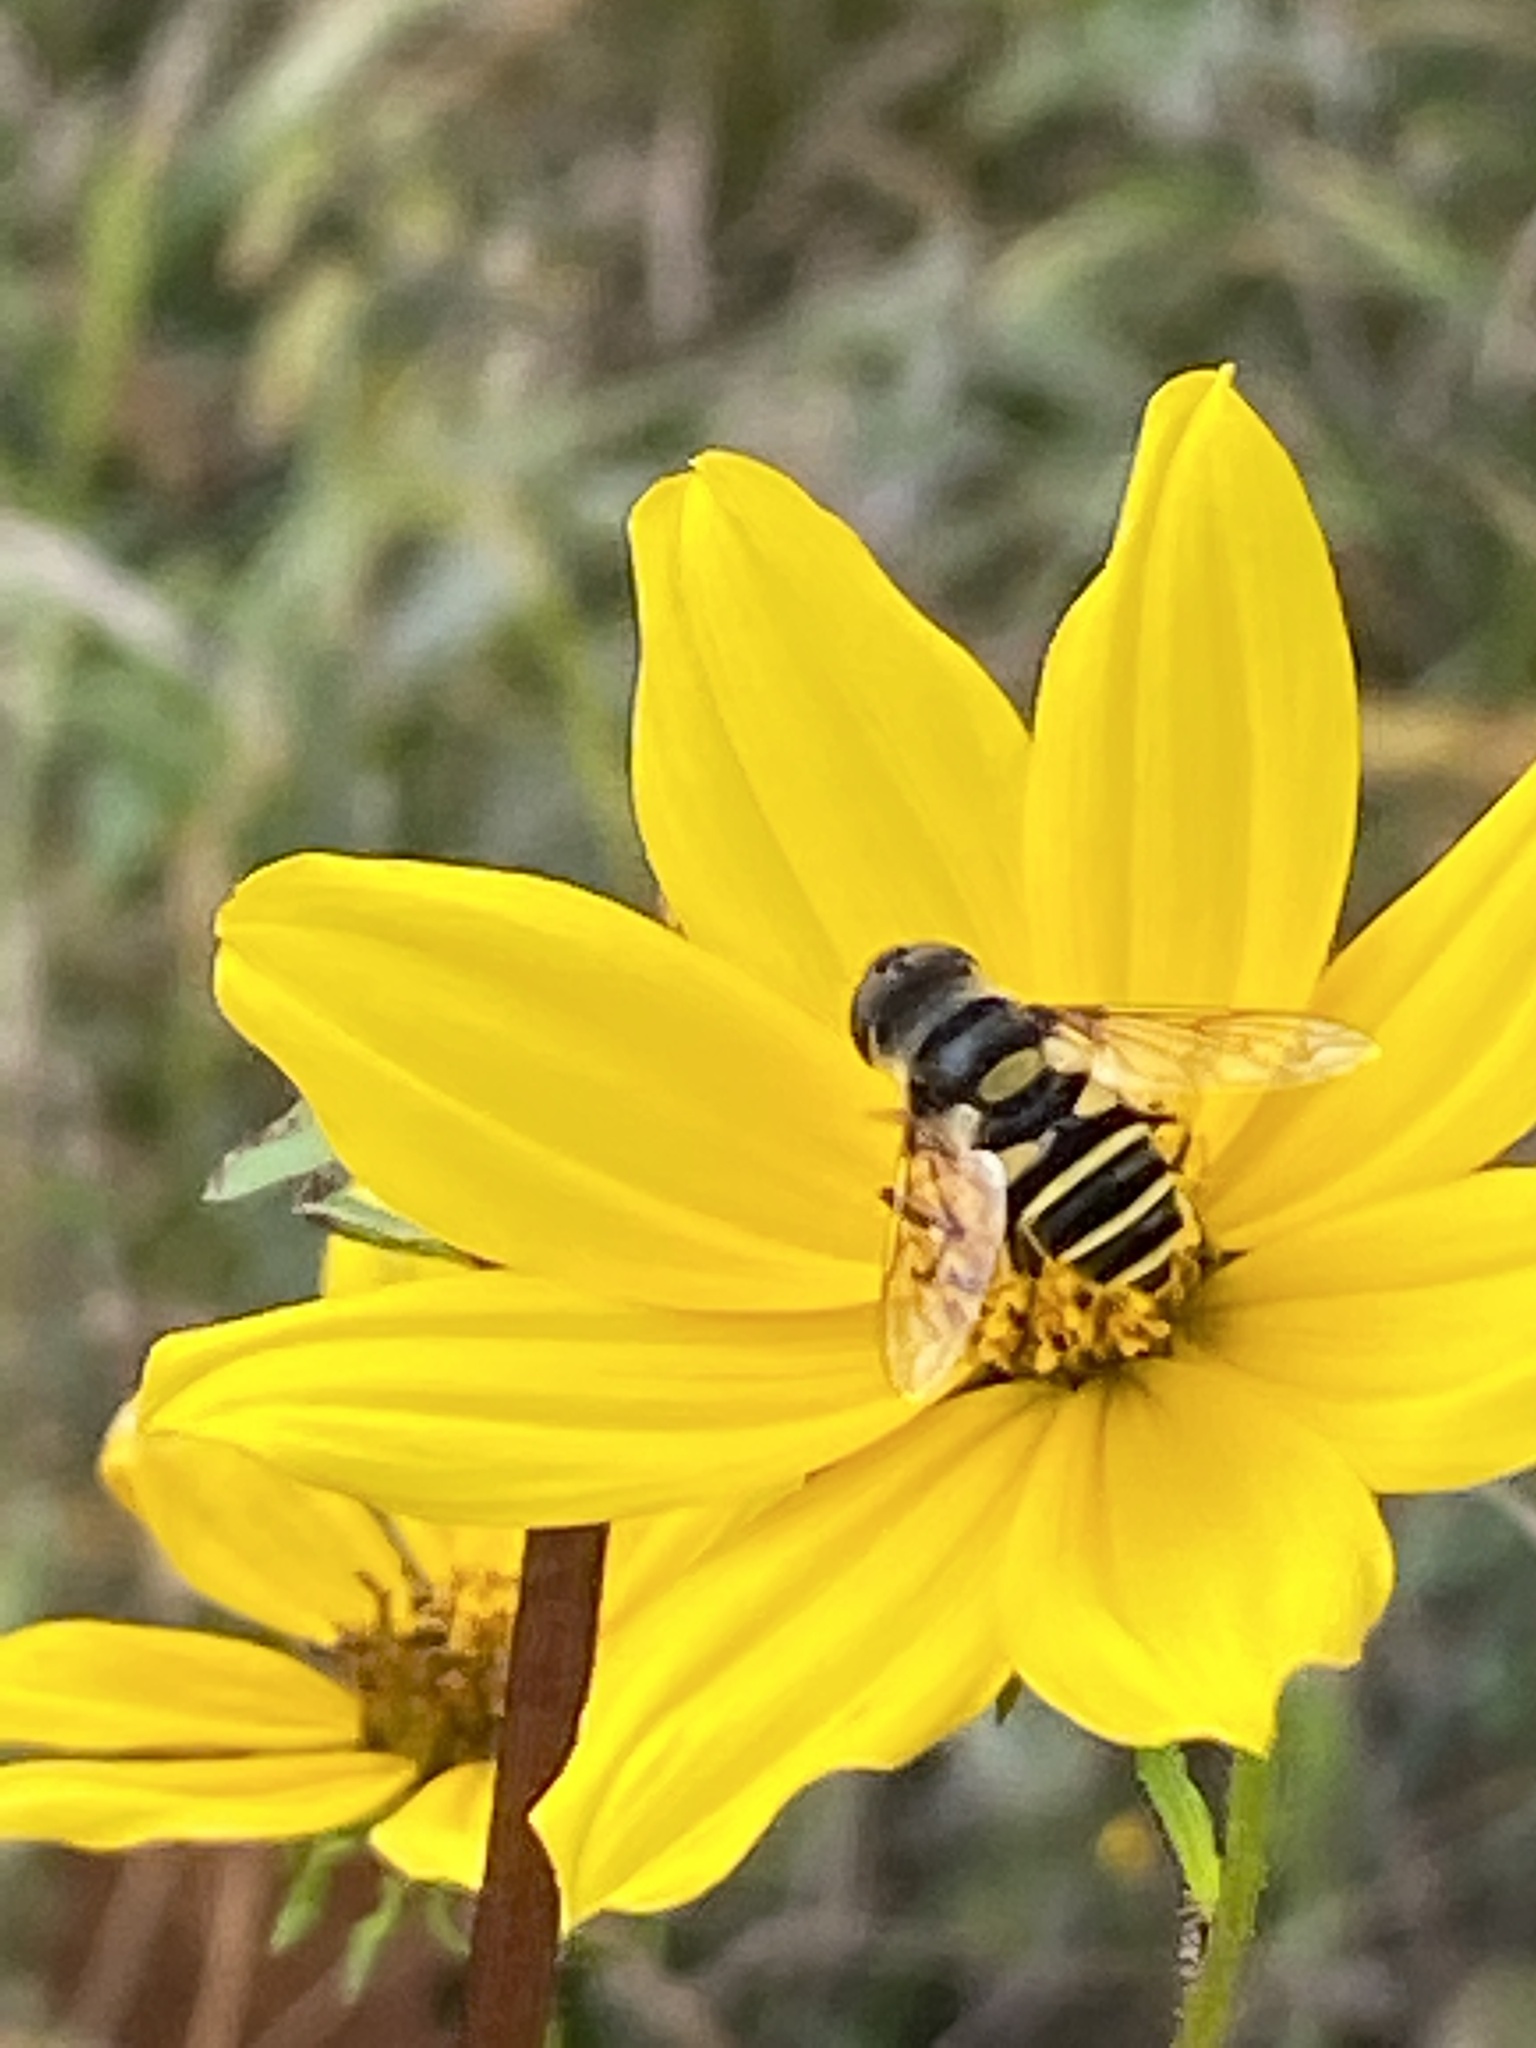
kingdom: Animalia
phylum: Arthropoda
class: Insecta
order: Diptera
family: Syrphidae
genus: Eristalis
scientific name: Eristalis transversa
